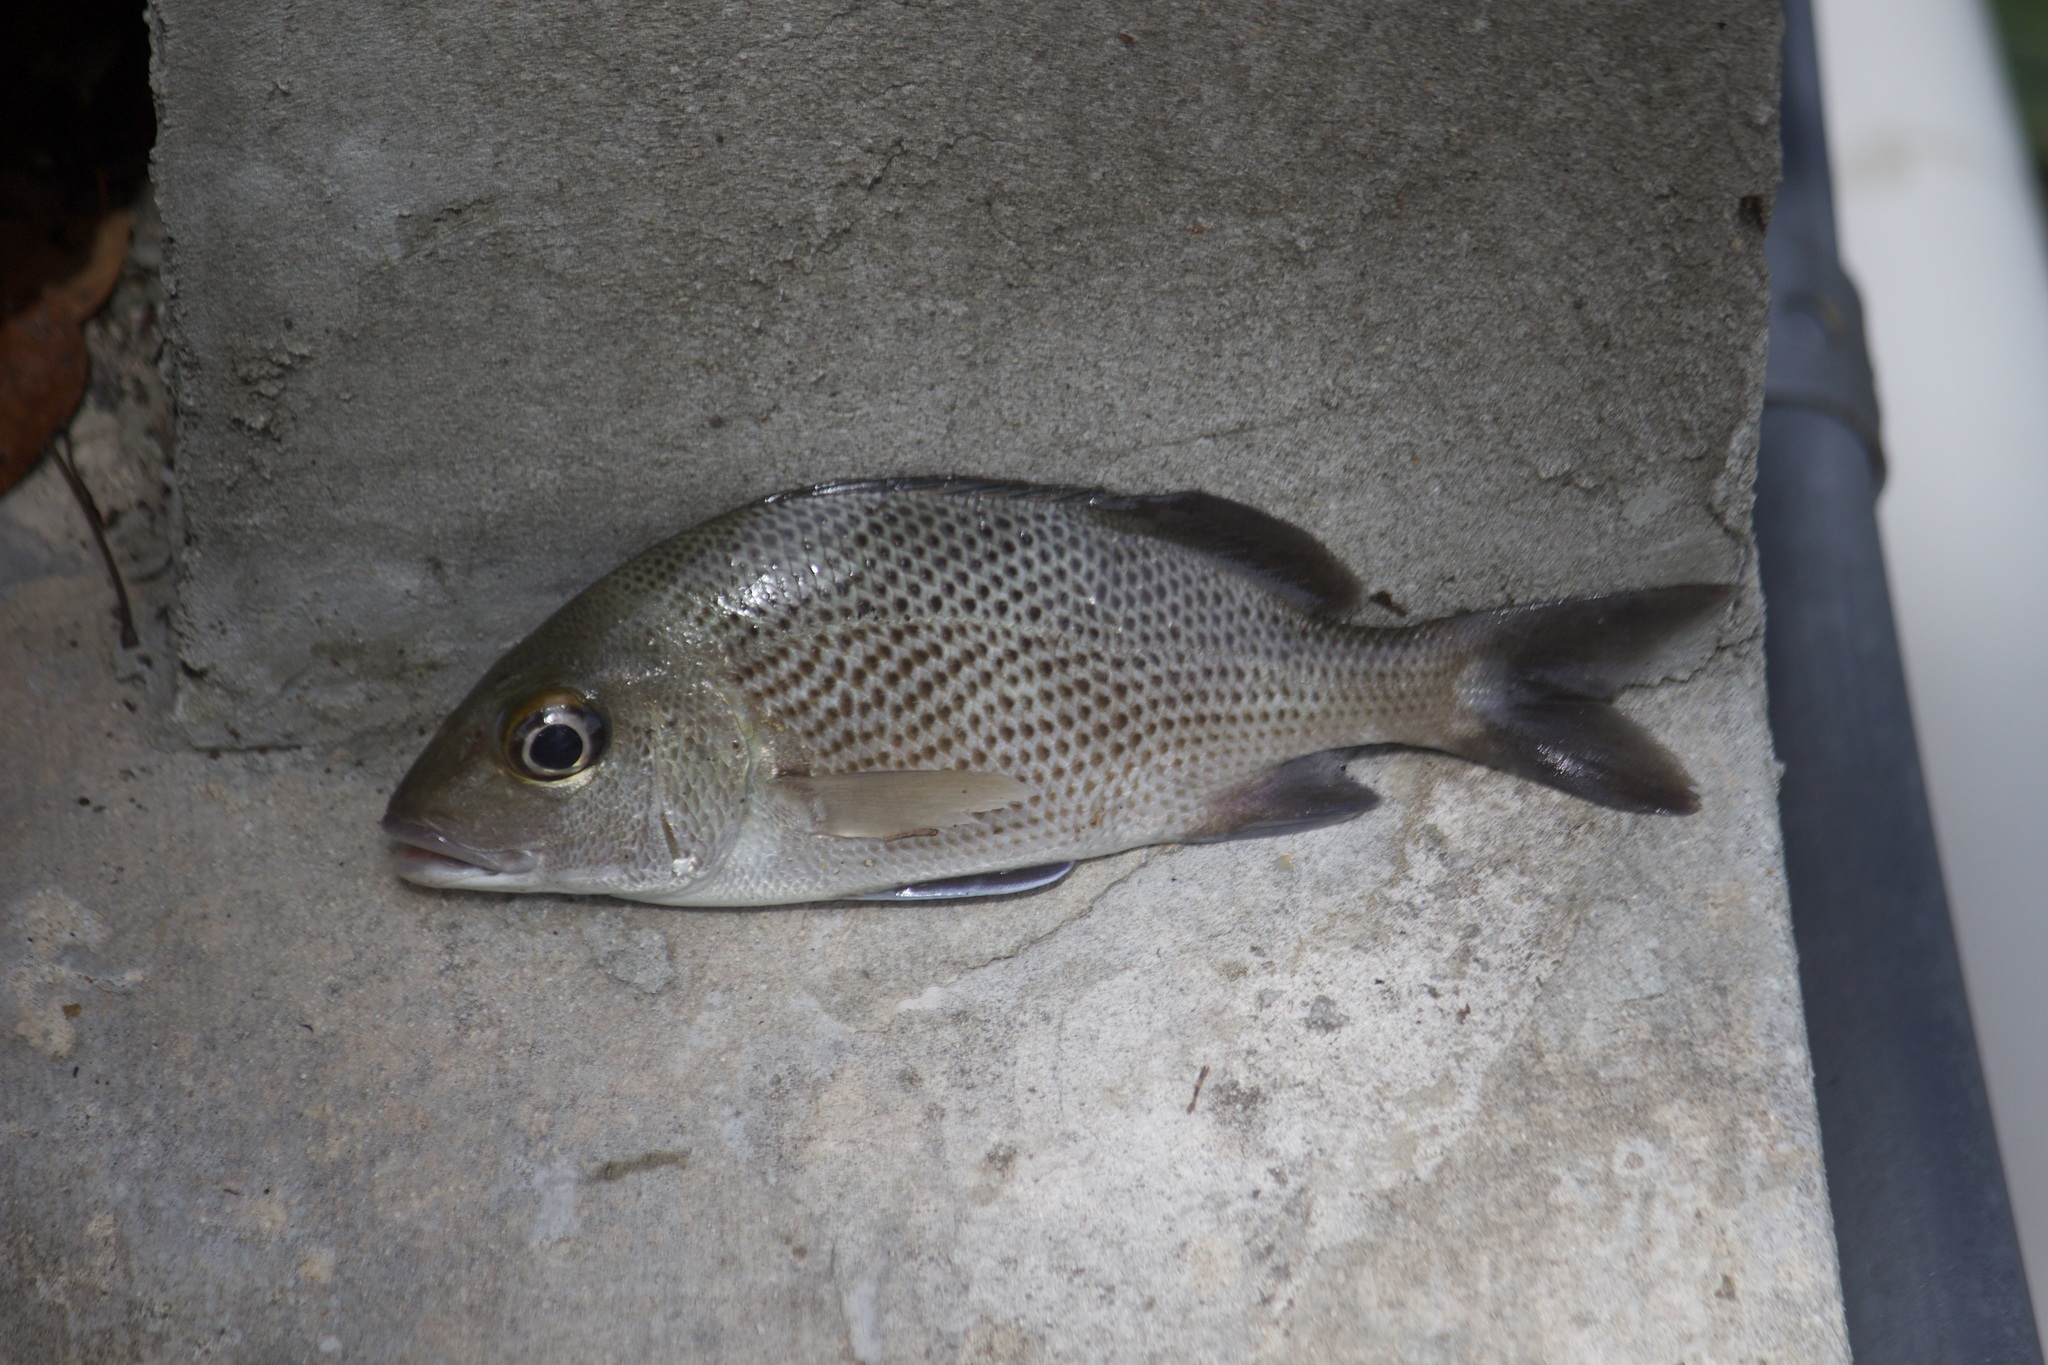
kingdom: Animalia
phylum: Chordata
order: Perciformes
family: Haemulidae
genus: Haemulon
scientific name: Haemulon parra
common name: Sailor's choice
